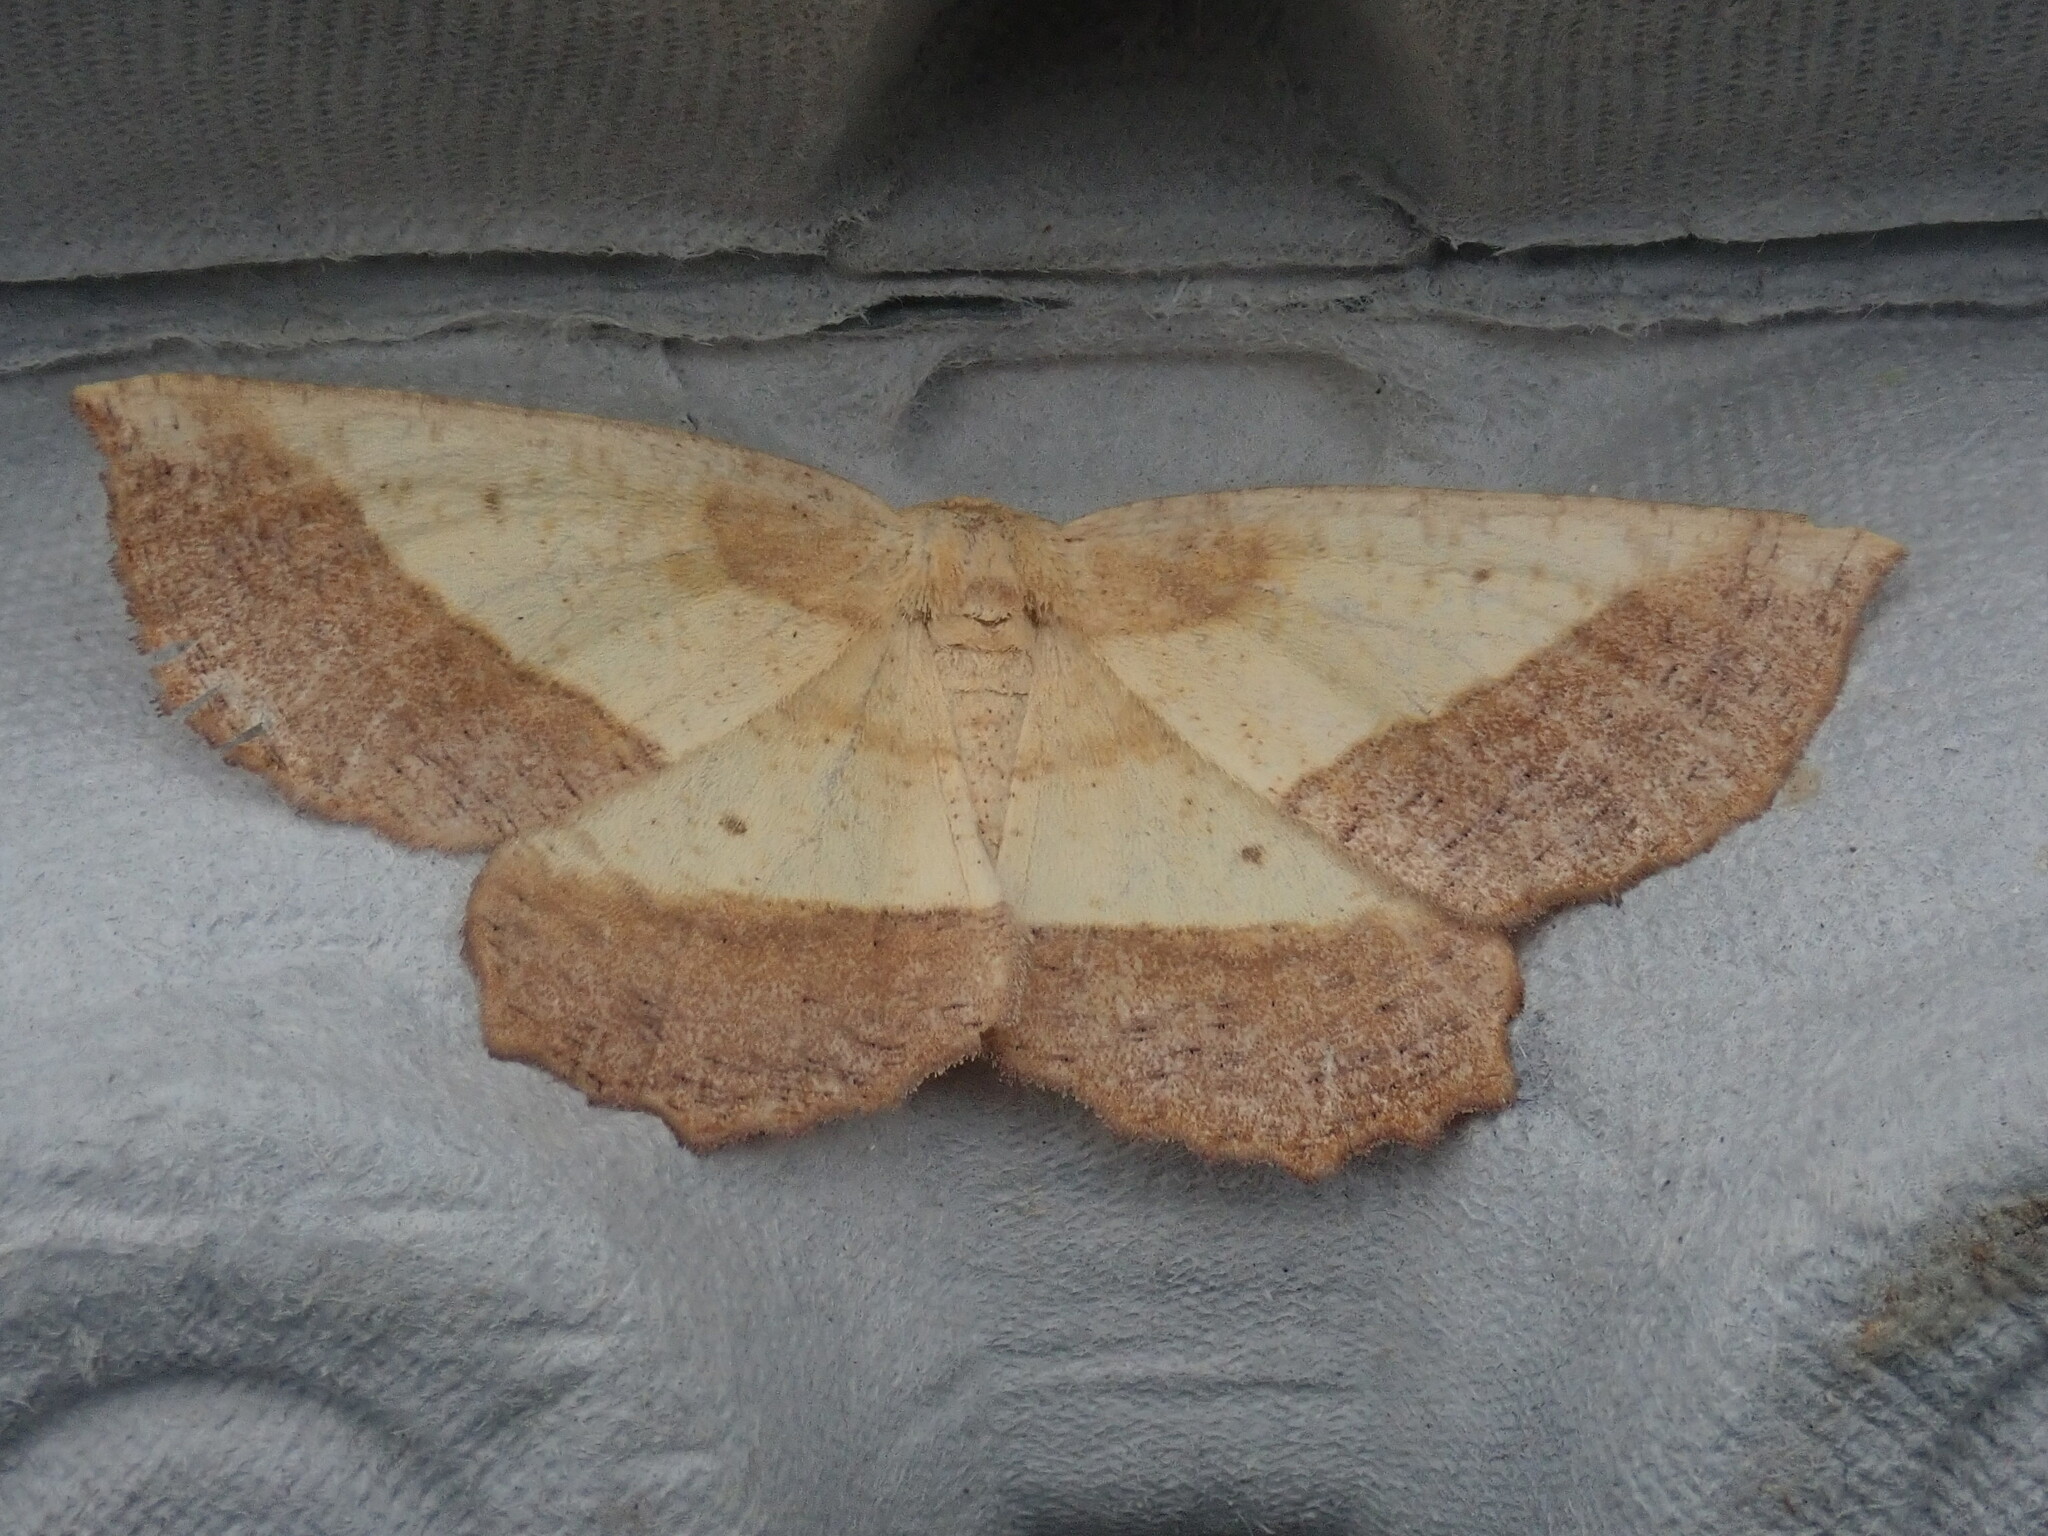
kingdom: Animalia
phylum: Arthropoda
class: Insecta
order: Lepidoptera
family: Geometridae
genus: Euchlaena
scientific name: Euchlaena serrata
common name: Saw wing
